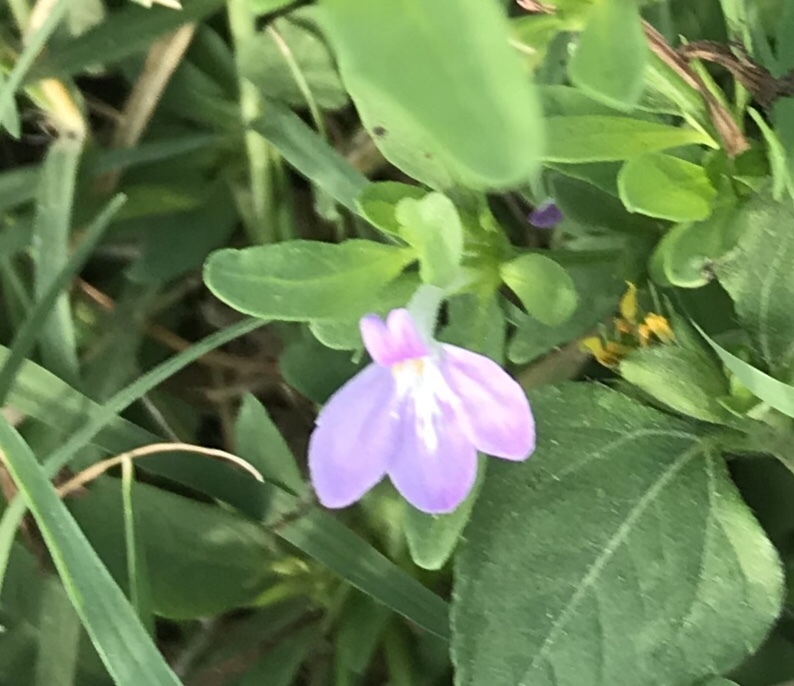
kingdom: Plantae
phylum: Tracheophyta
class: Magnoliopsida
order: Lamiales
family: Acanthaceae
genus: Justicia
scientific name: Justicia pilosella
